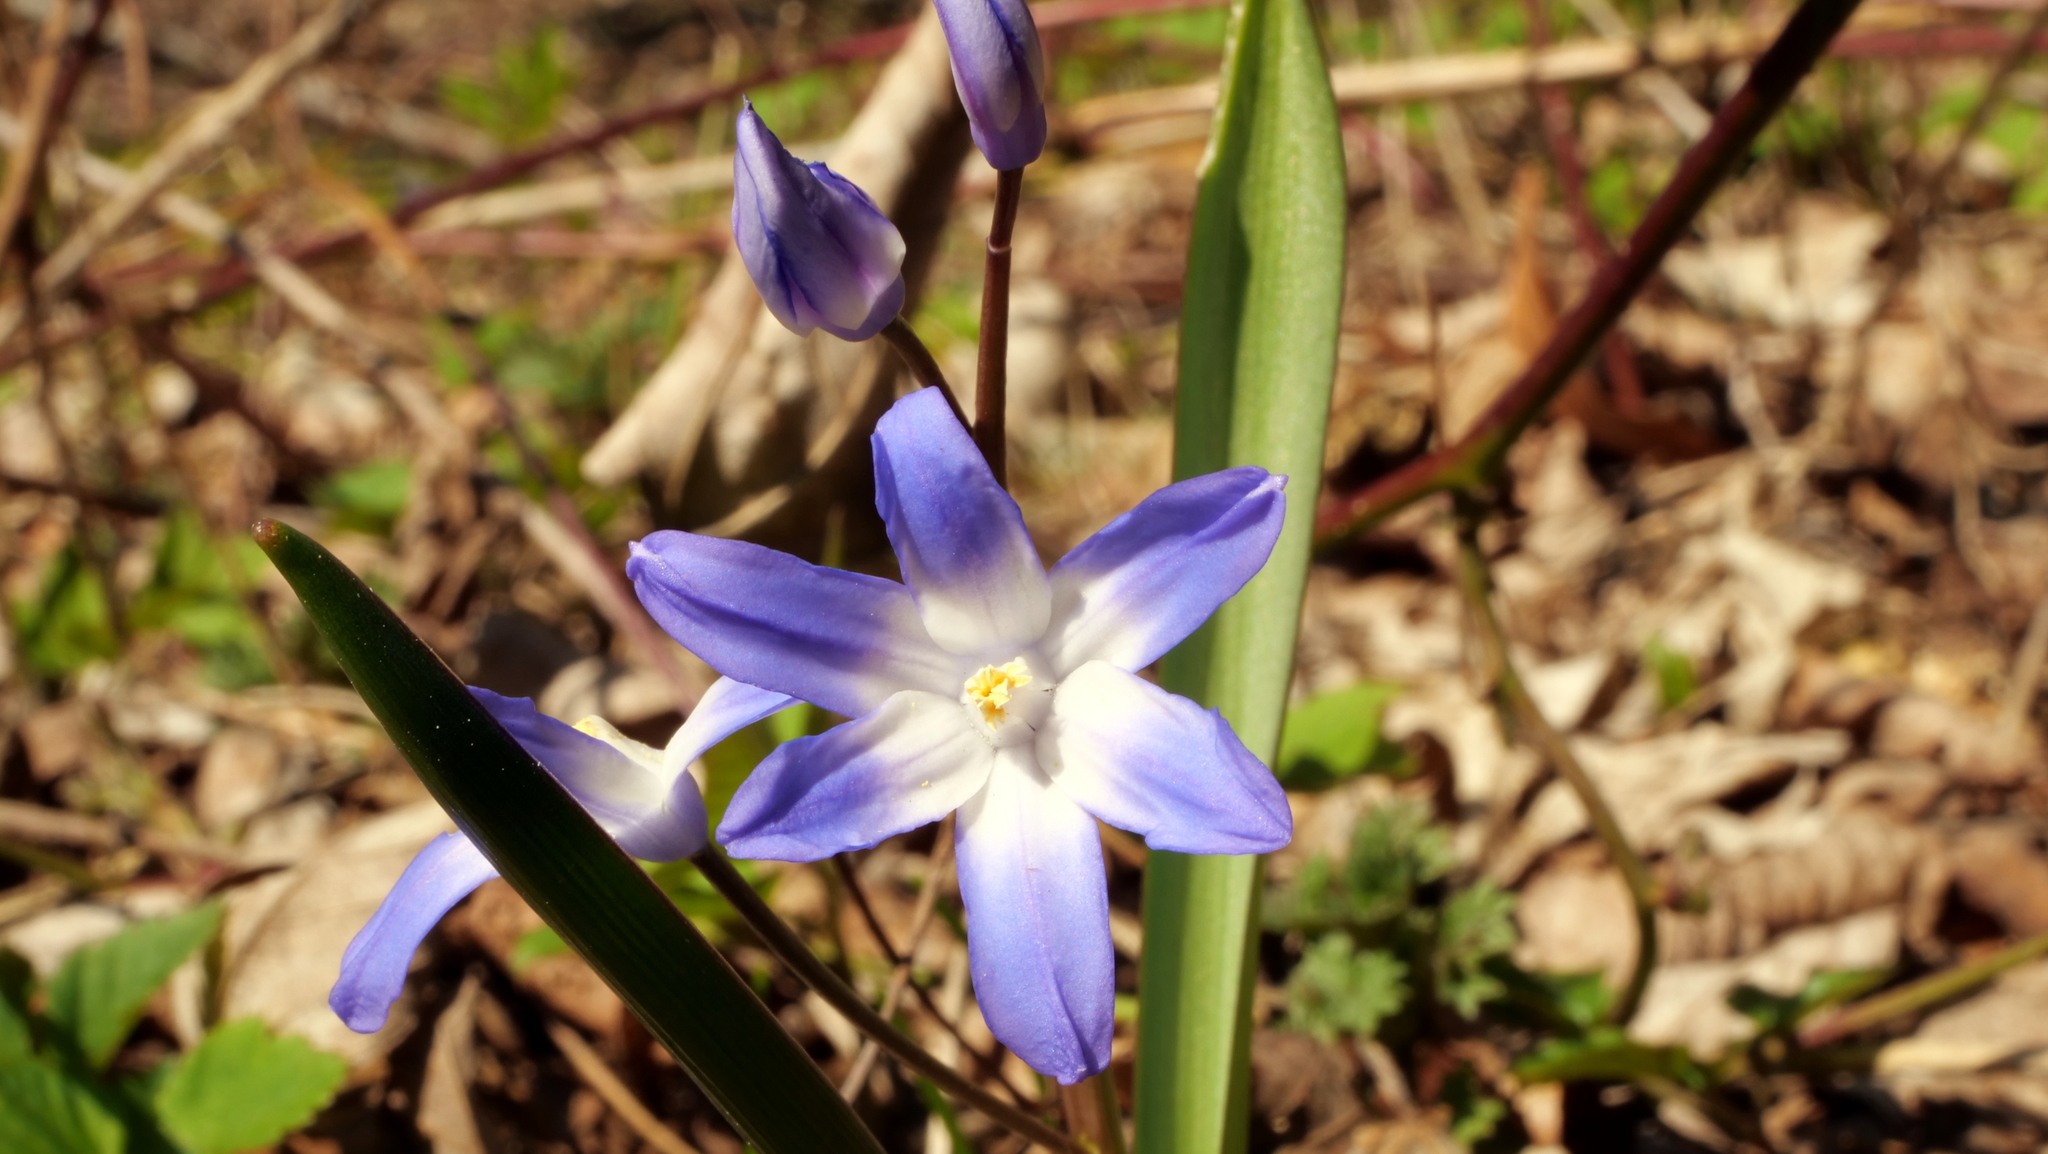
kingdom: Plantae
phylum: Tracheophyta
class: Liliopsida
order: Asparagales
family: Asparagaceae
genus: Scilla
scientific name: Scilla forbesii
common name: Glory-of-the-snow
